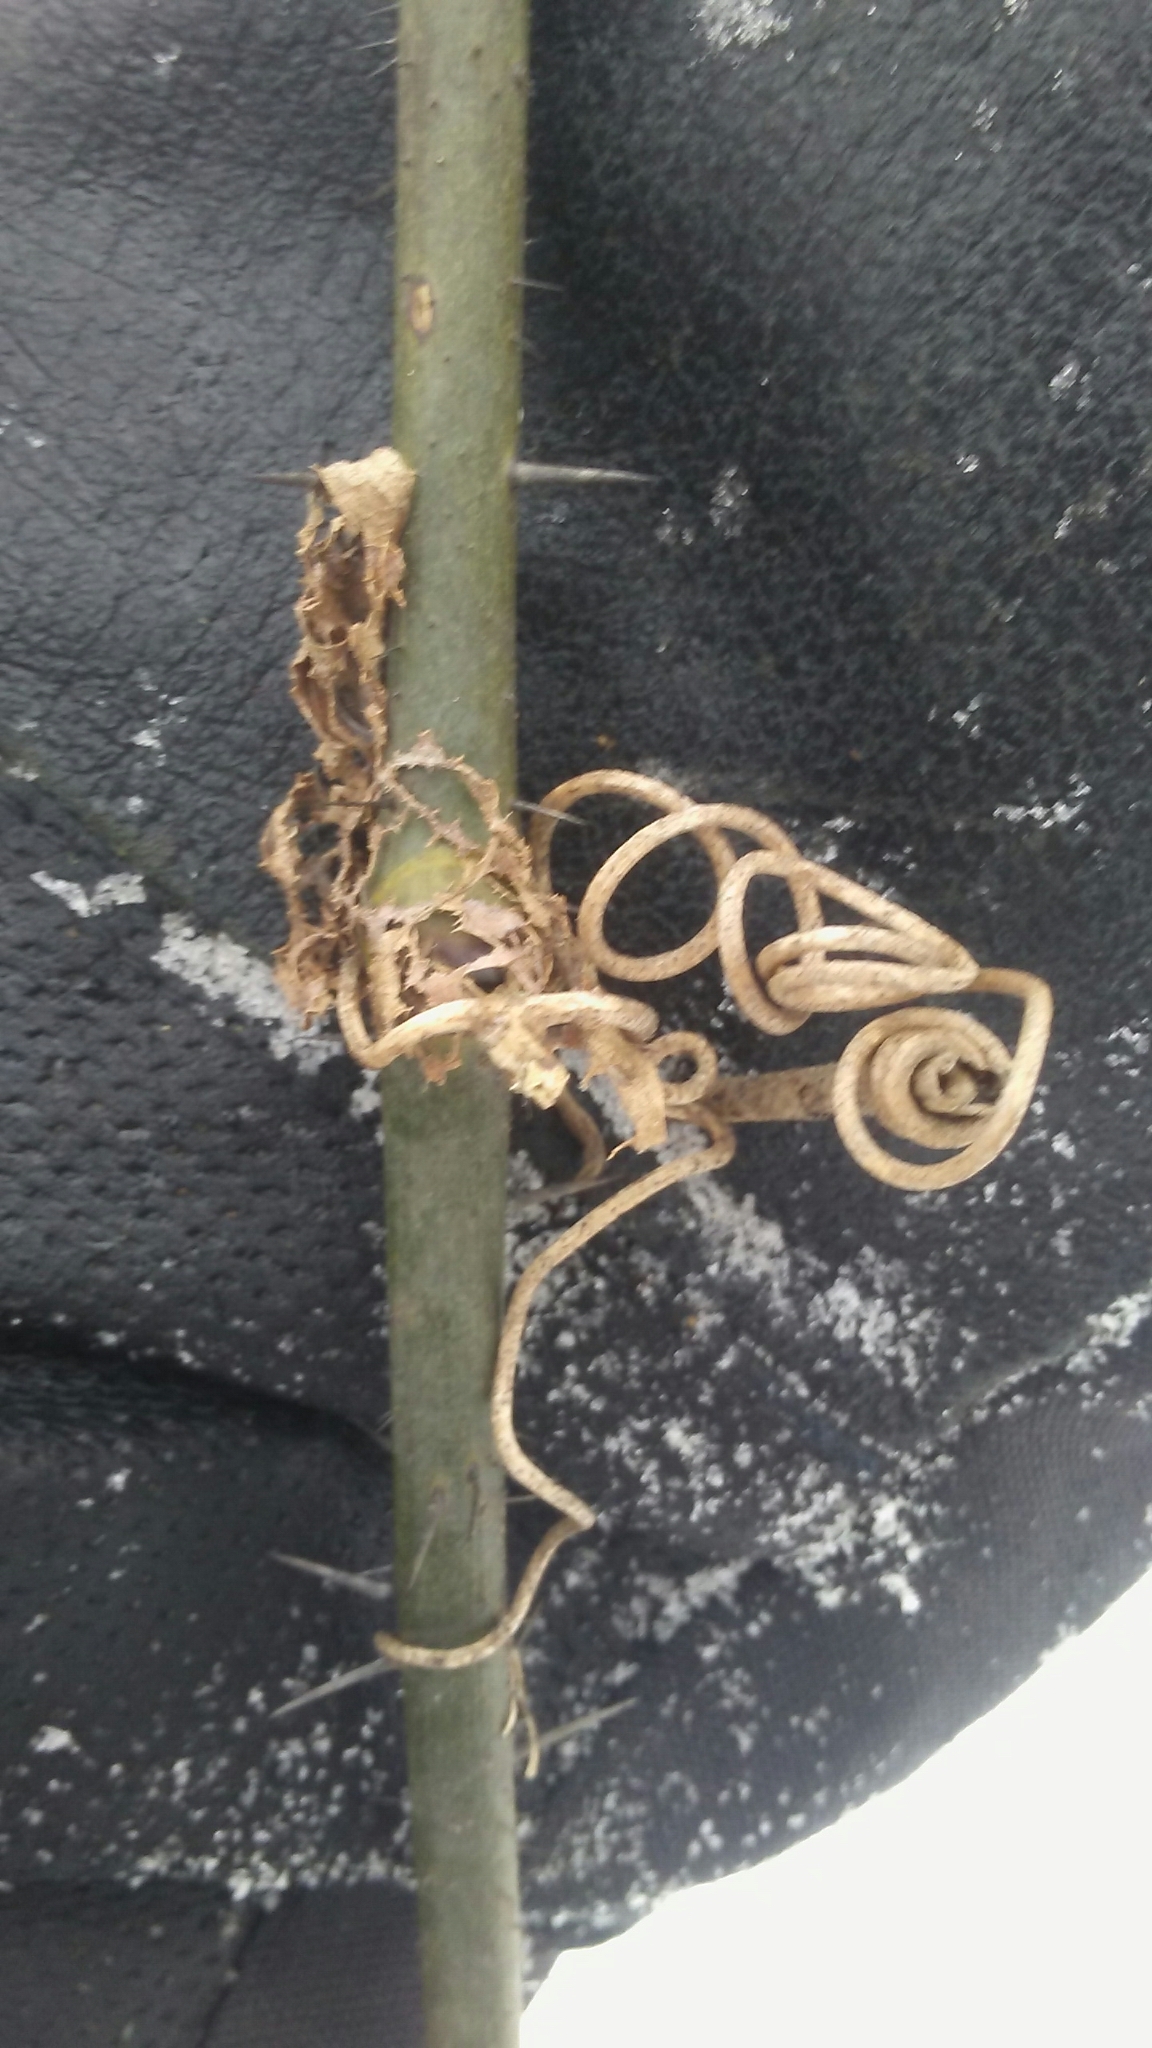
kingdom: Plantae
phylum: Tracheophyta
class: Liliopsida
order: Liliales
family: Smilacaceae
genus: Smilax
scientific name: Smilax tamnoides
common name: Hellfetter
